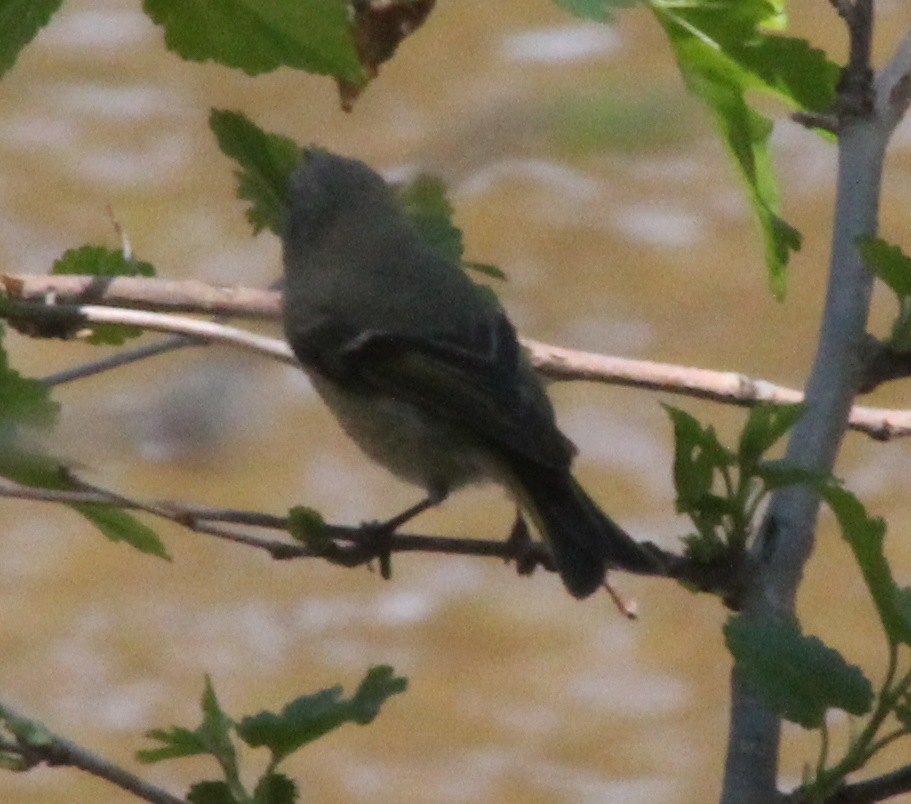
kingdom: Animalia
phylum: Chordata
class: Aves
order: Passeriformes
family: Regulidae
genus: Regulus
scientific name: Regulus calendula
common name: Ruby-crowned kinglet
